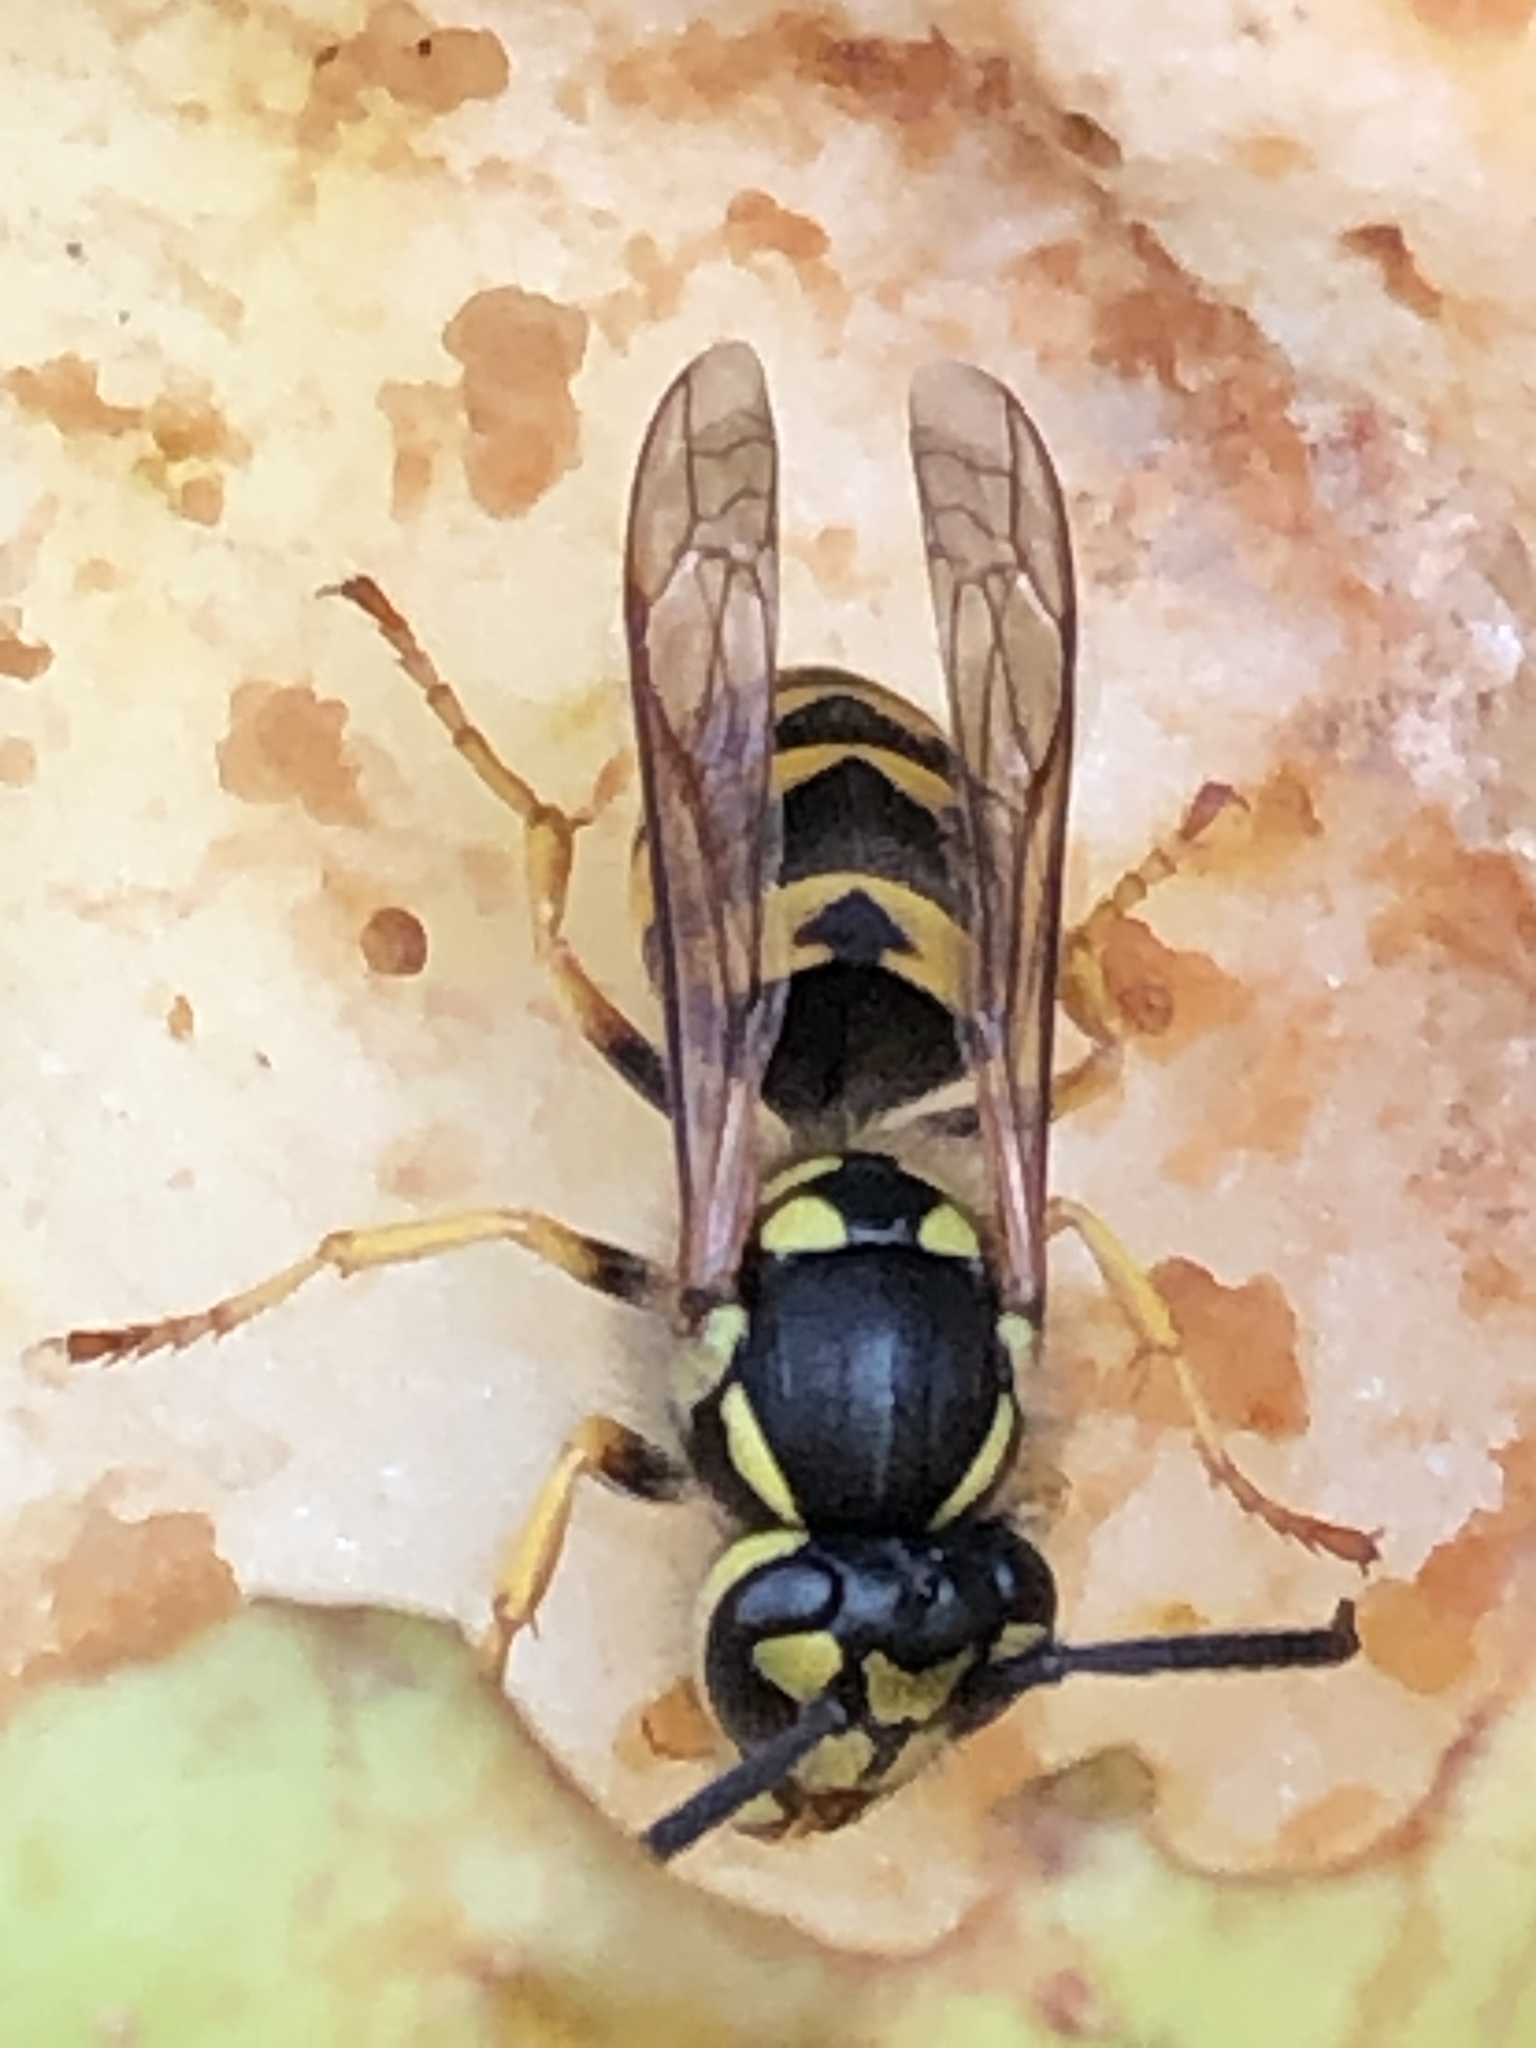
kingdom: Animalia
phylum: Arthropoda
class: Insecta
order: Hymenoptera
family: Vespidae
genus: Vespula
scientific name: Vespula germanica
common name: German wasp
